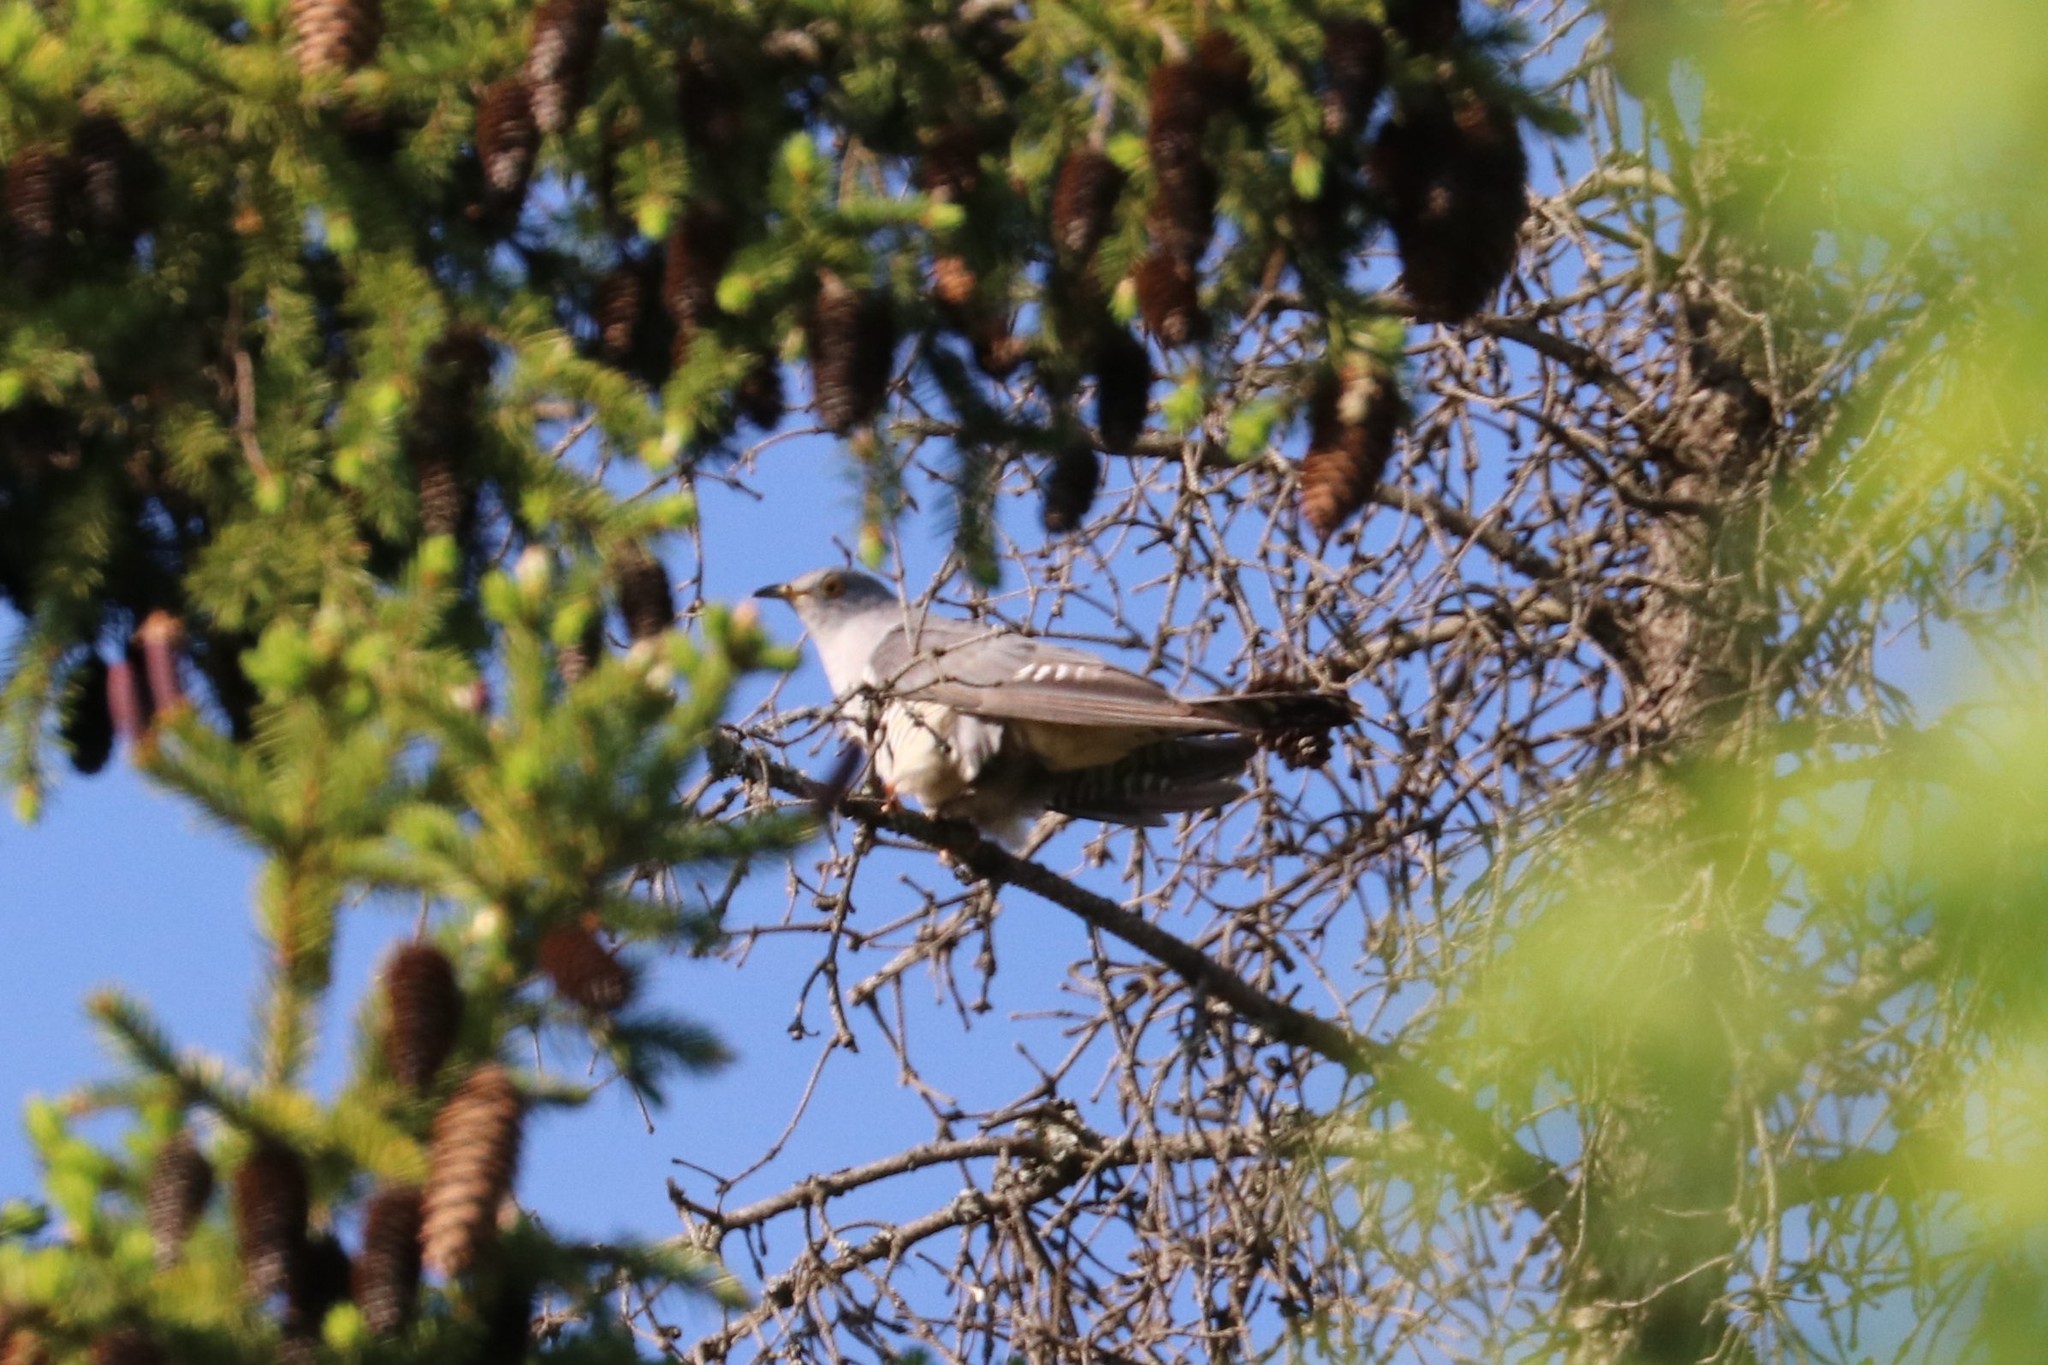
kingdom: Animalia
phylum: Chordata
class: Aves
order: Cuculiformes
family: Cuculidae
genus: Cuculus
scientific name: Cuculus optatus
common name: Oriental cuckoo
